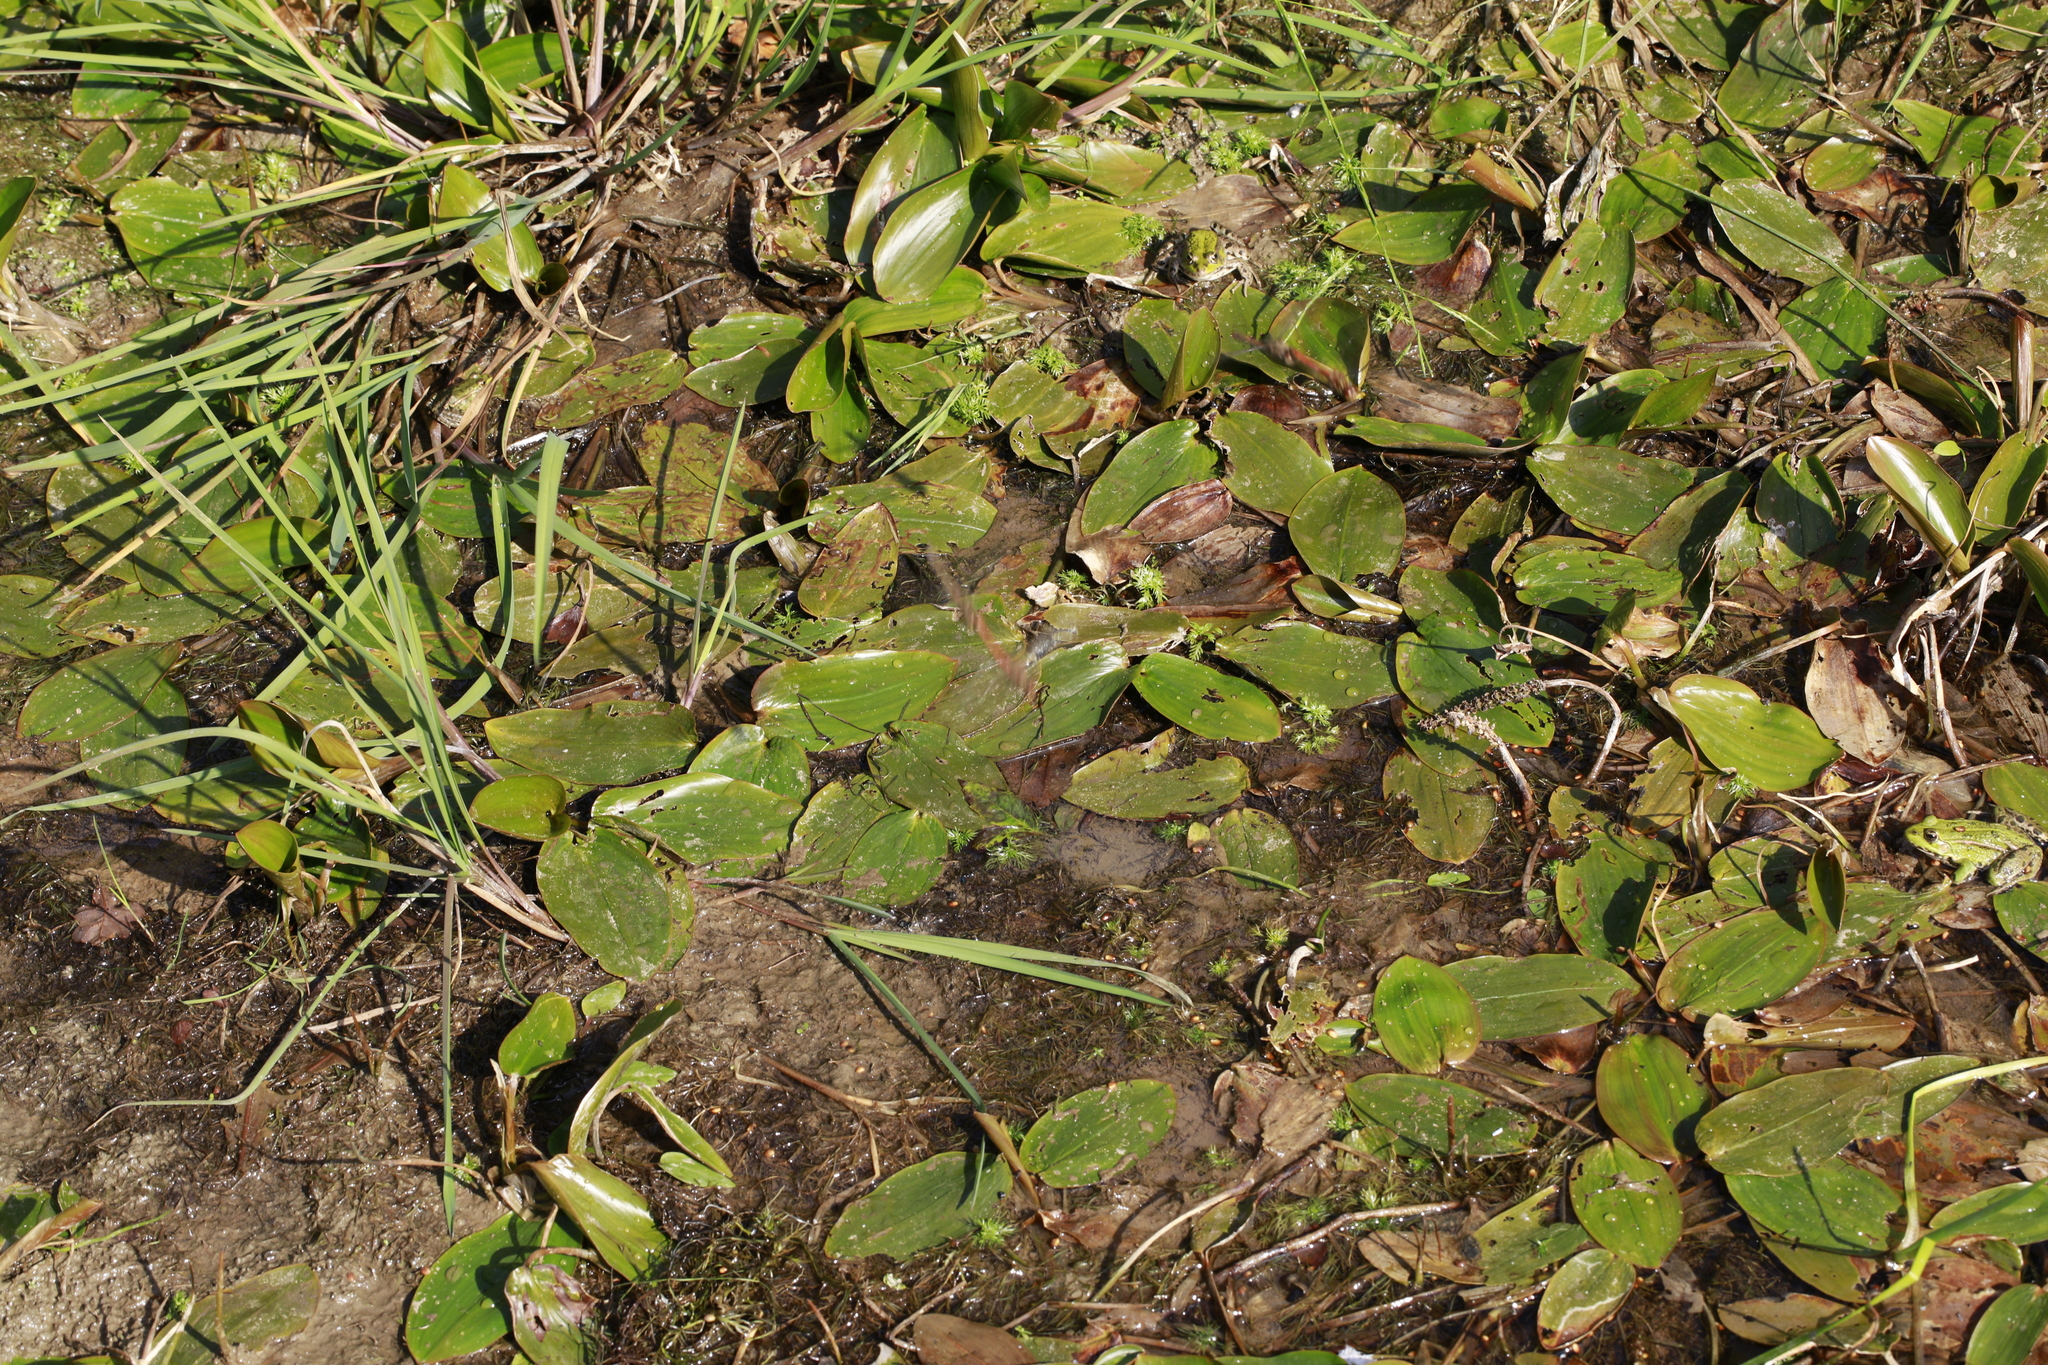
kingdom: Plantae
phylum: Tracheophyta
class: Liliopsida
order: Alismatales
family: Potamogetonaceae
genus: Potamogeton
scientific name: Potamogeton natans
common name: Broad-leaved pondweed
